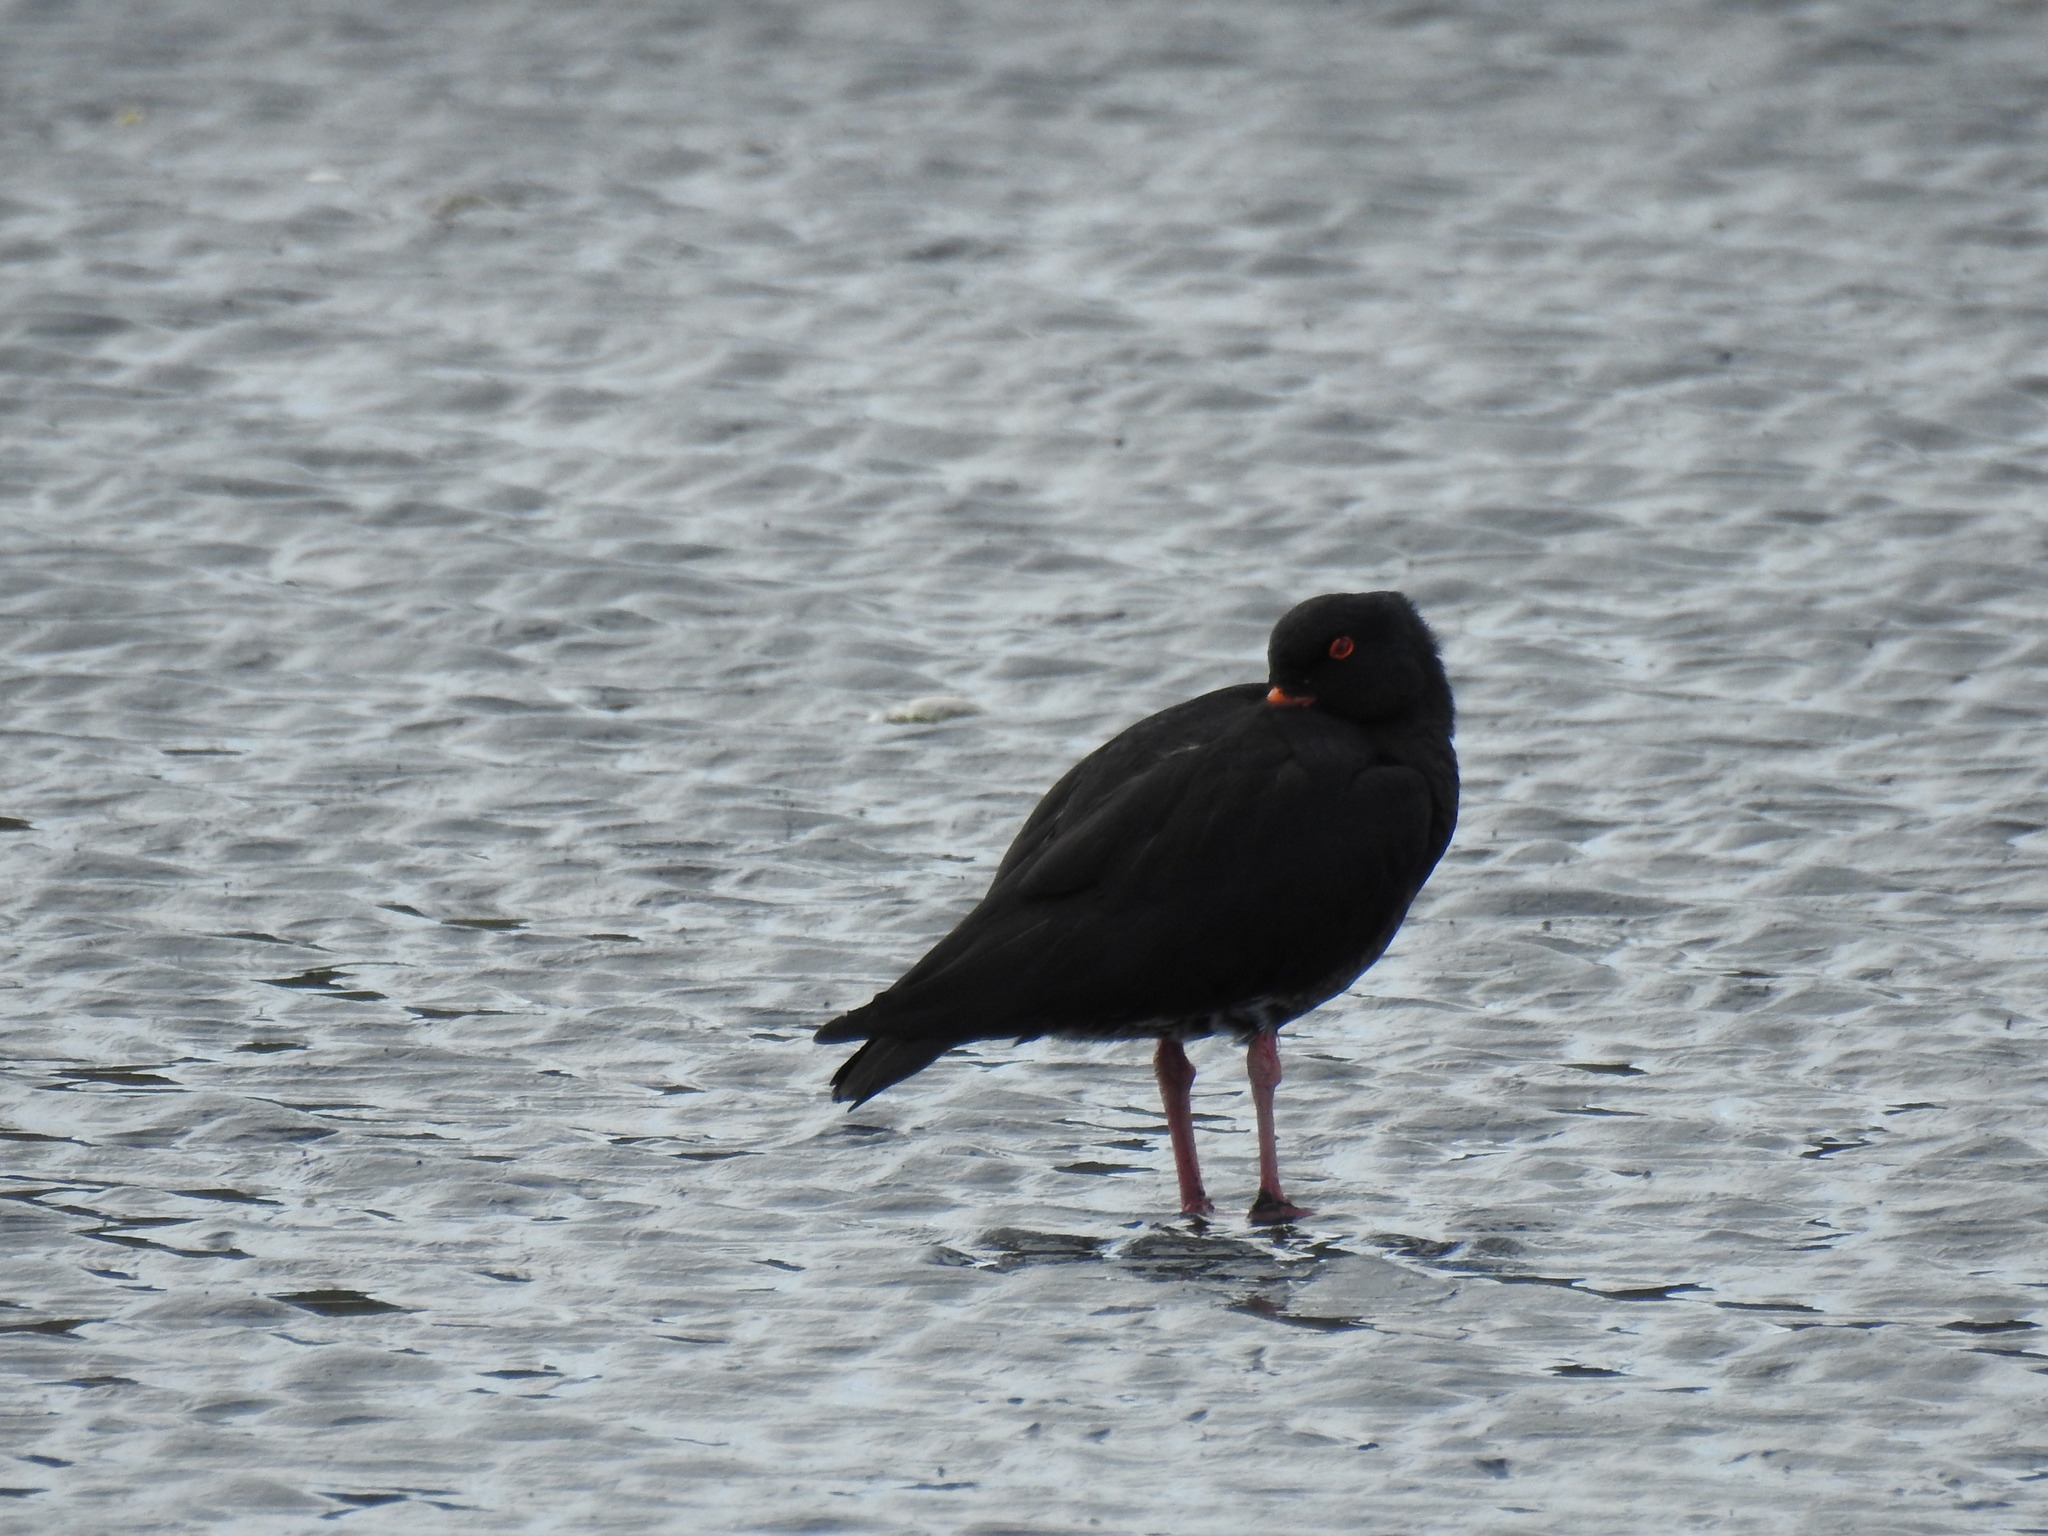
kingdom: Animalia
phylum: Chordata
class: Aves
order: Charadriiformes
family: Haematopodidae
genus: Haematopus
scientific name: Haematopus unicolor
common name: Variable oystercatcher
